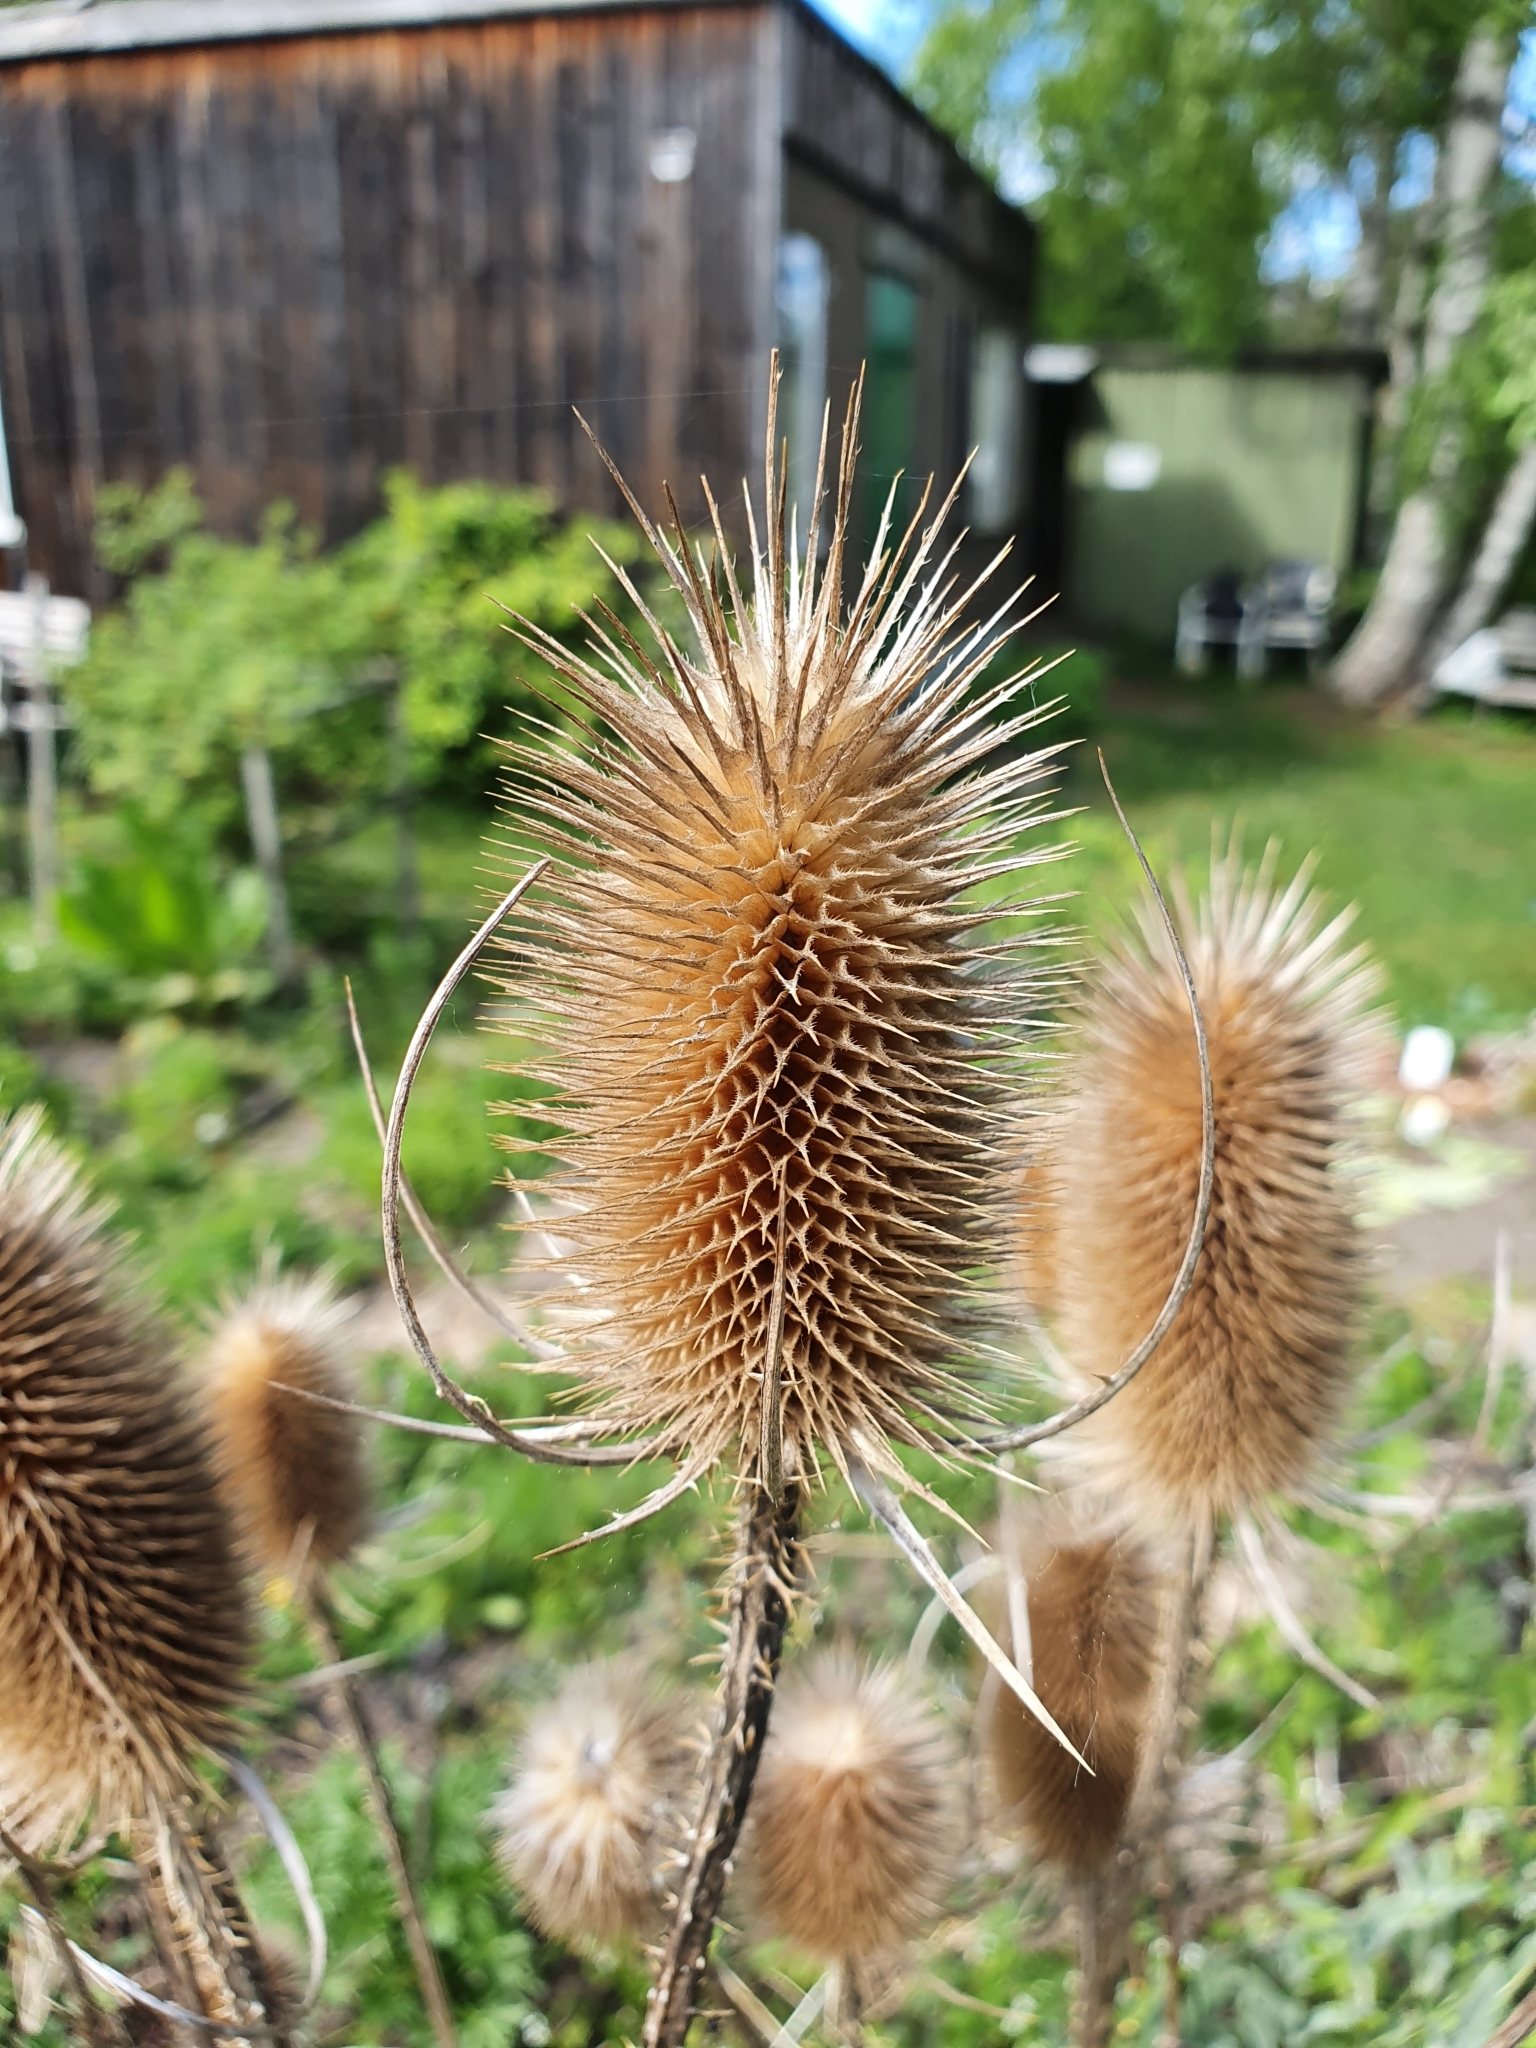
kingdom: Plantae
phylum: Tracheophyta
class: Magnoliopsida
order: Dipsacales
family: Caprifoliaceae
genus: Dipsacus
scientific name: Dipsacus fullonum
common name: Teasel
